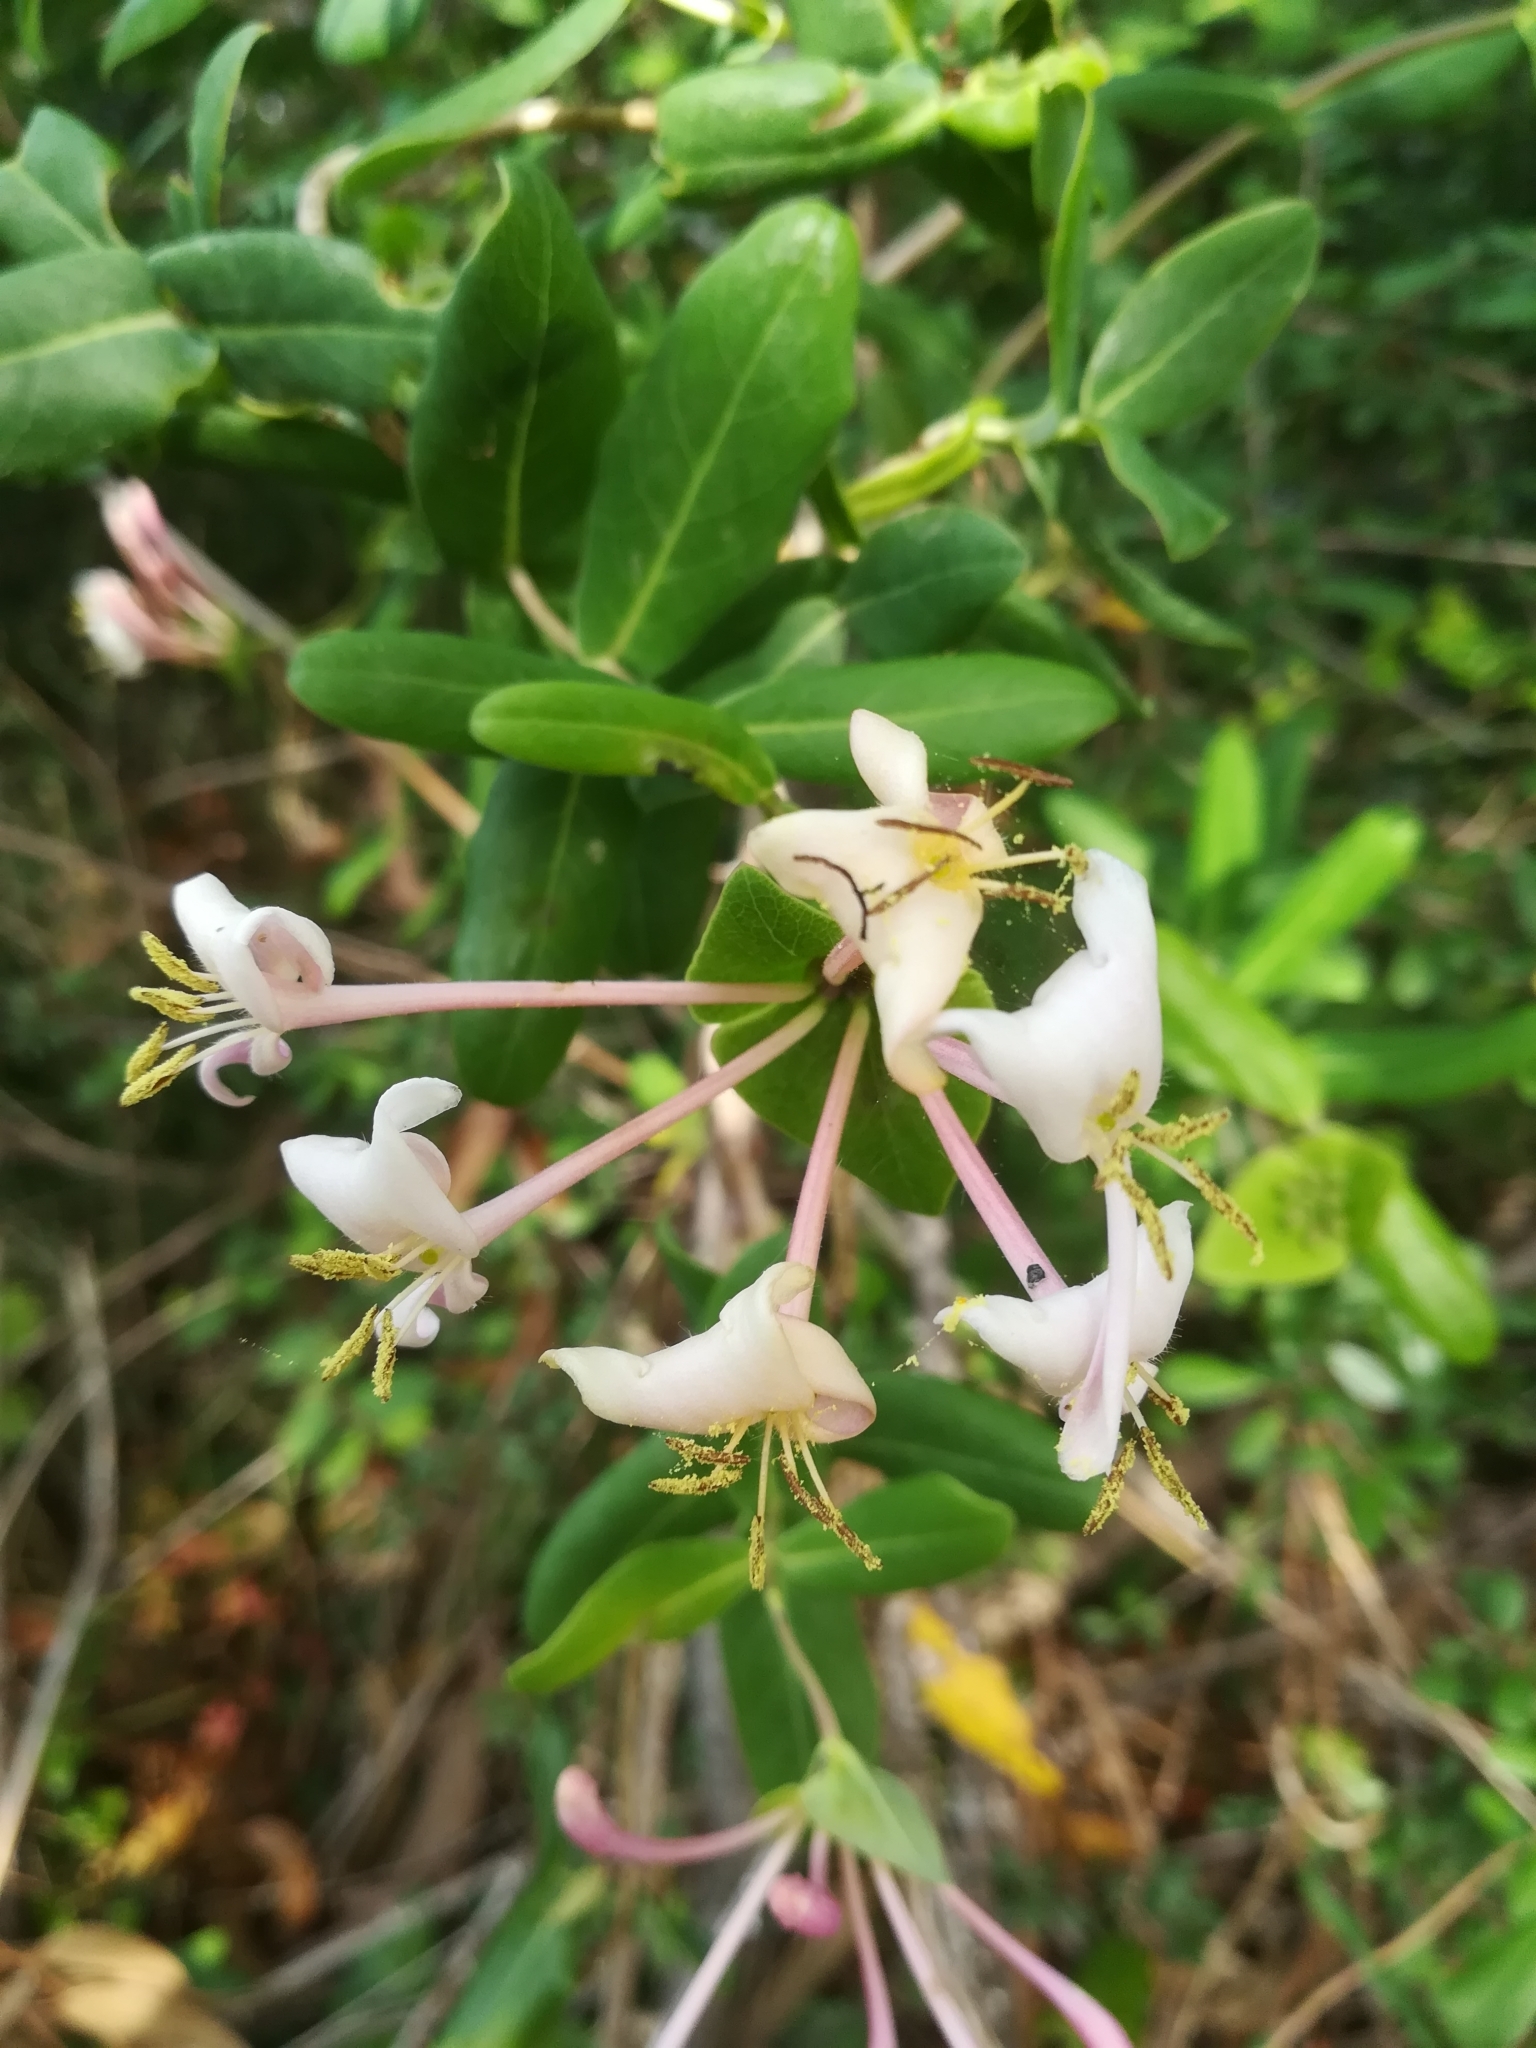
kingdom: Plantae
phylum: Tracheophyta
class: Magnoliopsida
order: Dipsacales
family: Caprifoliaceae
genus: Lonicera
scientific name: Lonicera implexa
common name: Minorca honeysuckle
